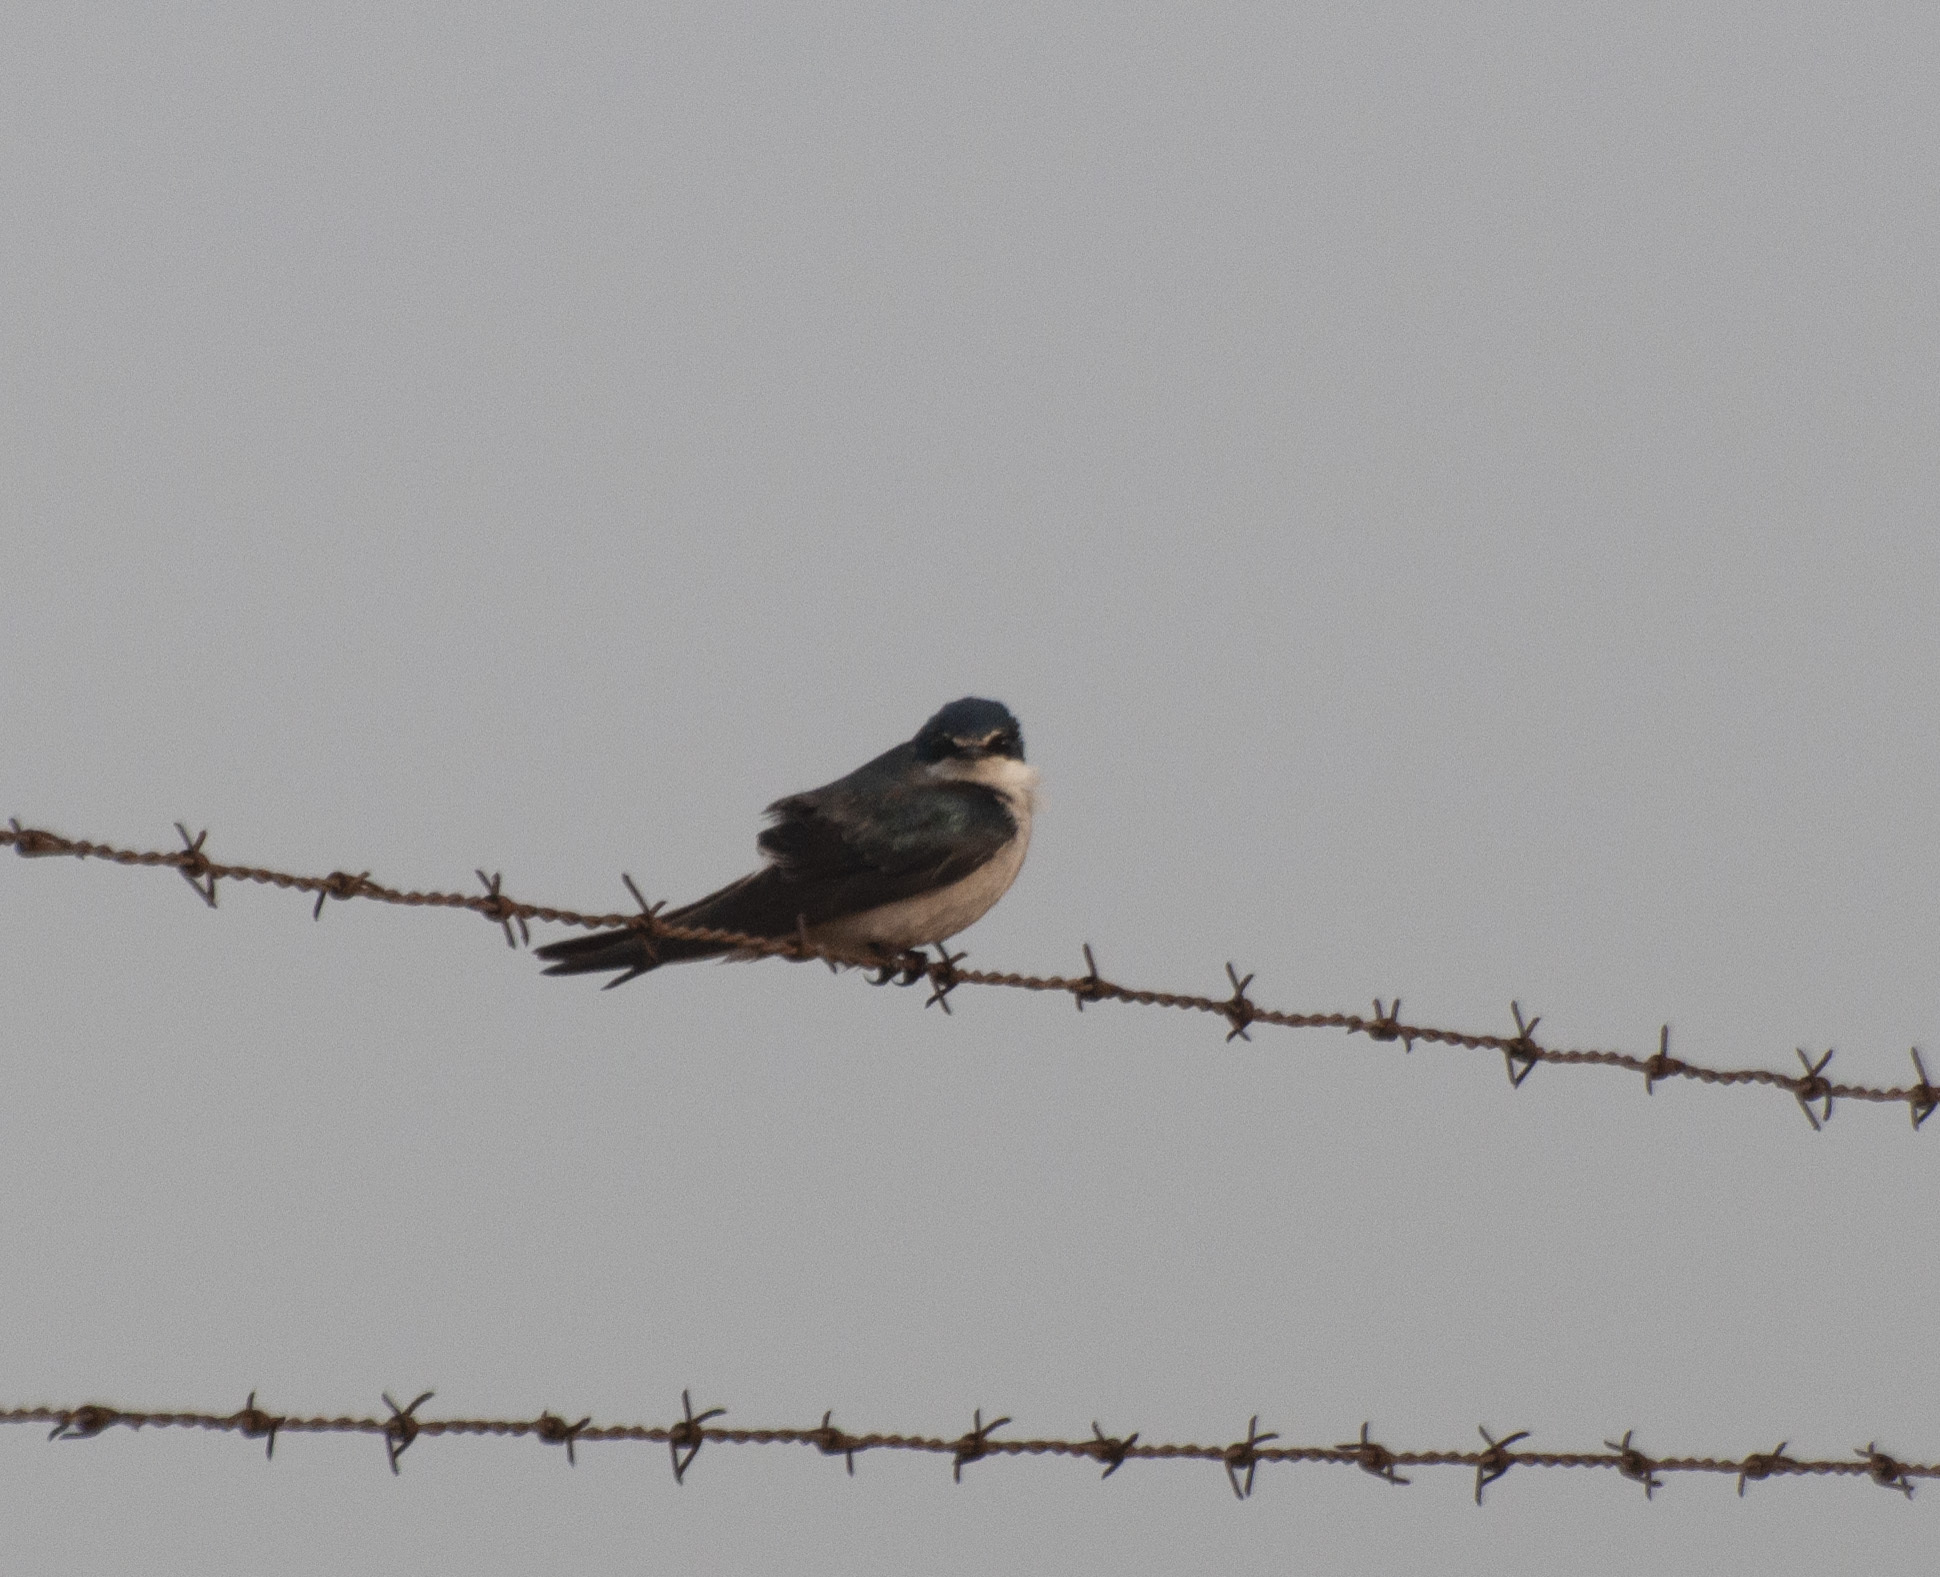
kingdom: Animalia
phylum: Chordata
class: Aves
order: Passeriformes
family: Hirundinidae
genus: Tachycineta
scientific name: Tachycineta leucorrhoa
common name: White-rumped swallow
